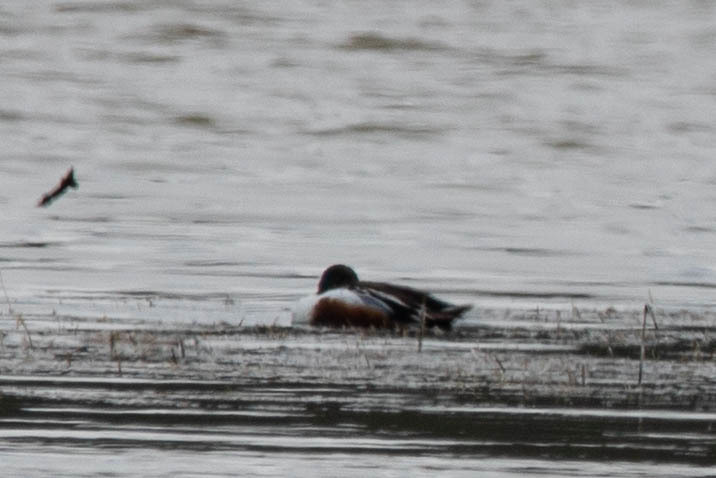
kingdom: Animalia
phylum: Chordata
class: Aves
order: Anseriformes
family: Anatidae
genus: Spatula
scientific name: Spatula clypeata
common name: Northern shoveler
